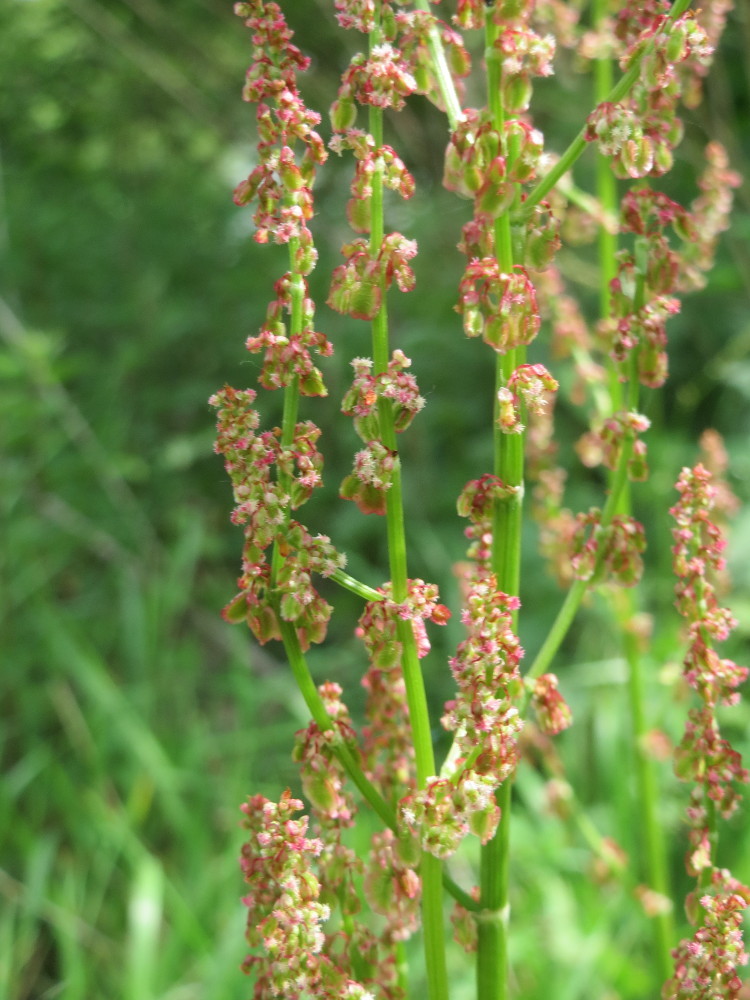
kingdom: Plantae
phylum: Tracheophyta
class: Magnoliopsida
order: Caryophyllales
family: Polygonaceae
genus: Rumex
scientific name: Rumex acetosa
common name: Garden sorrel
